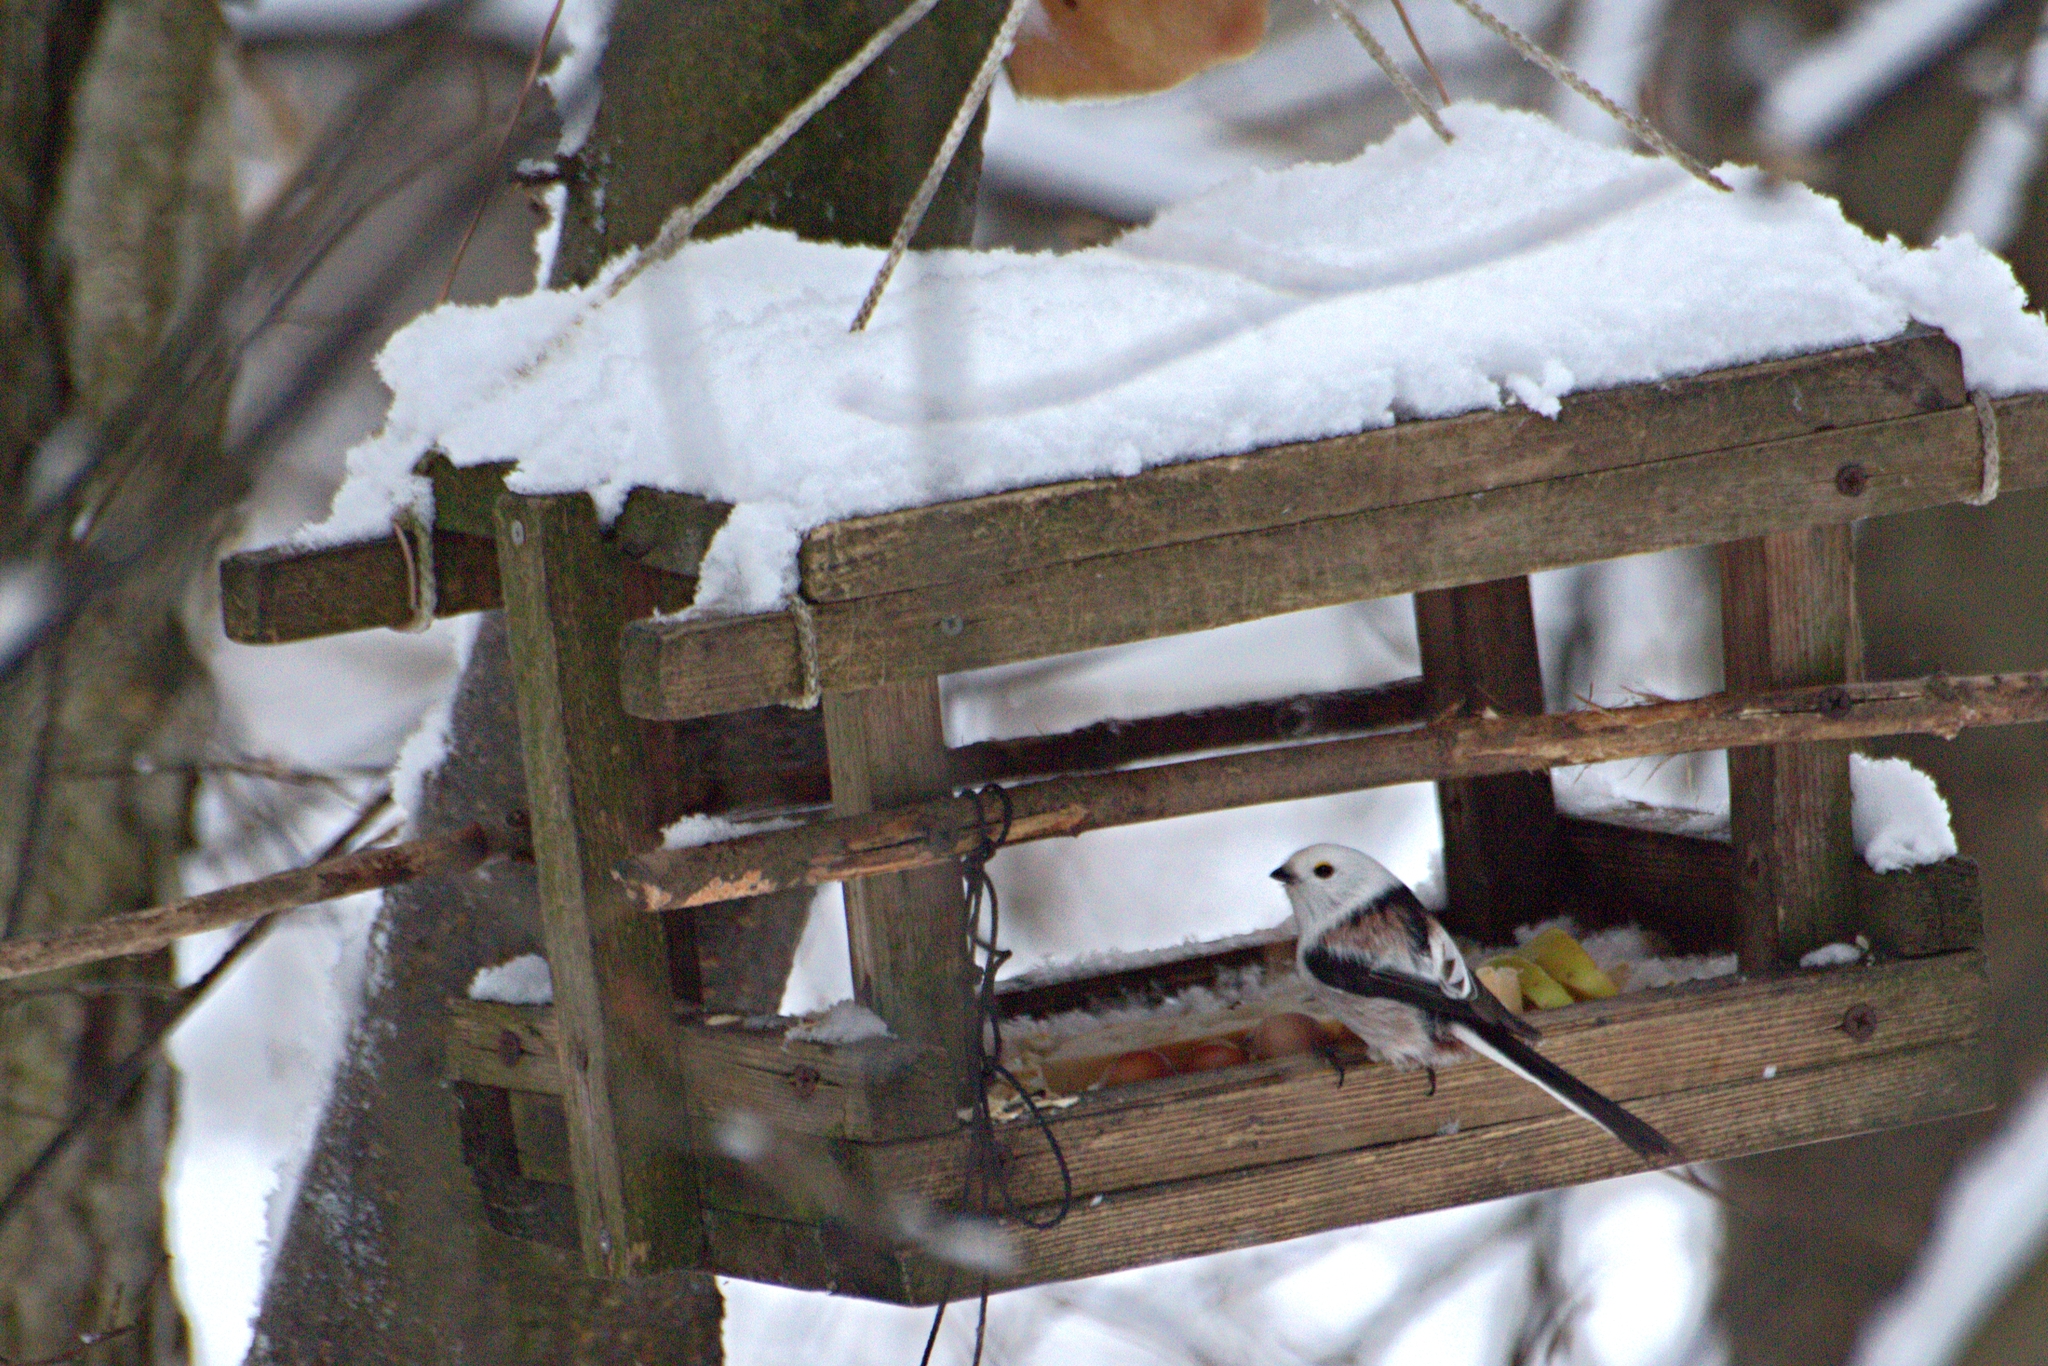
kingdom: Animalia
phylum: Chordata
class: Aves
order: Passeriformes
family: Aegithalidae
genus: Aegithalos
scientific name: Aegithalos caudatus
